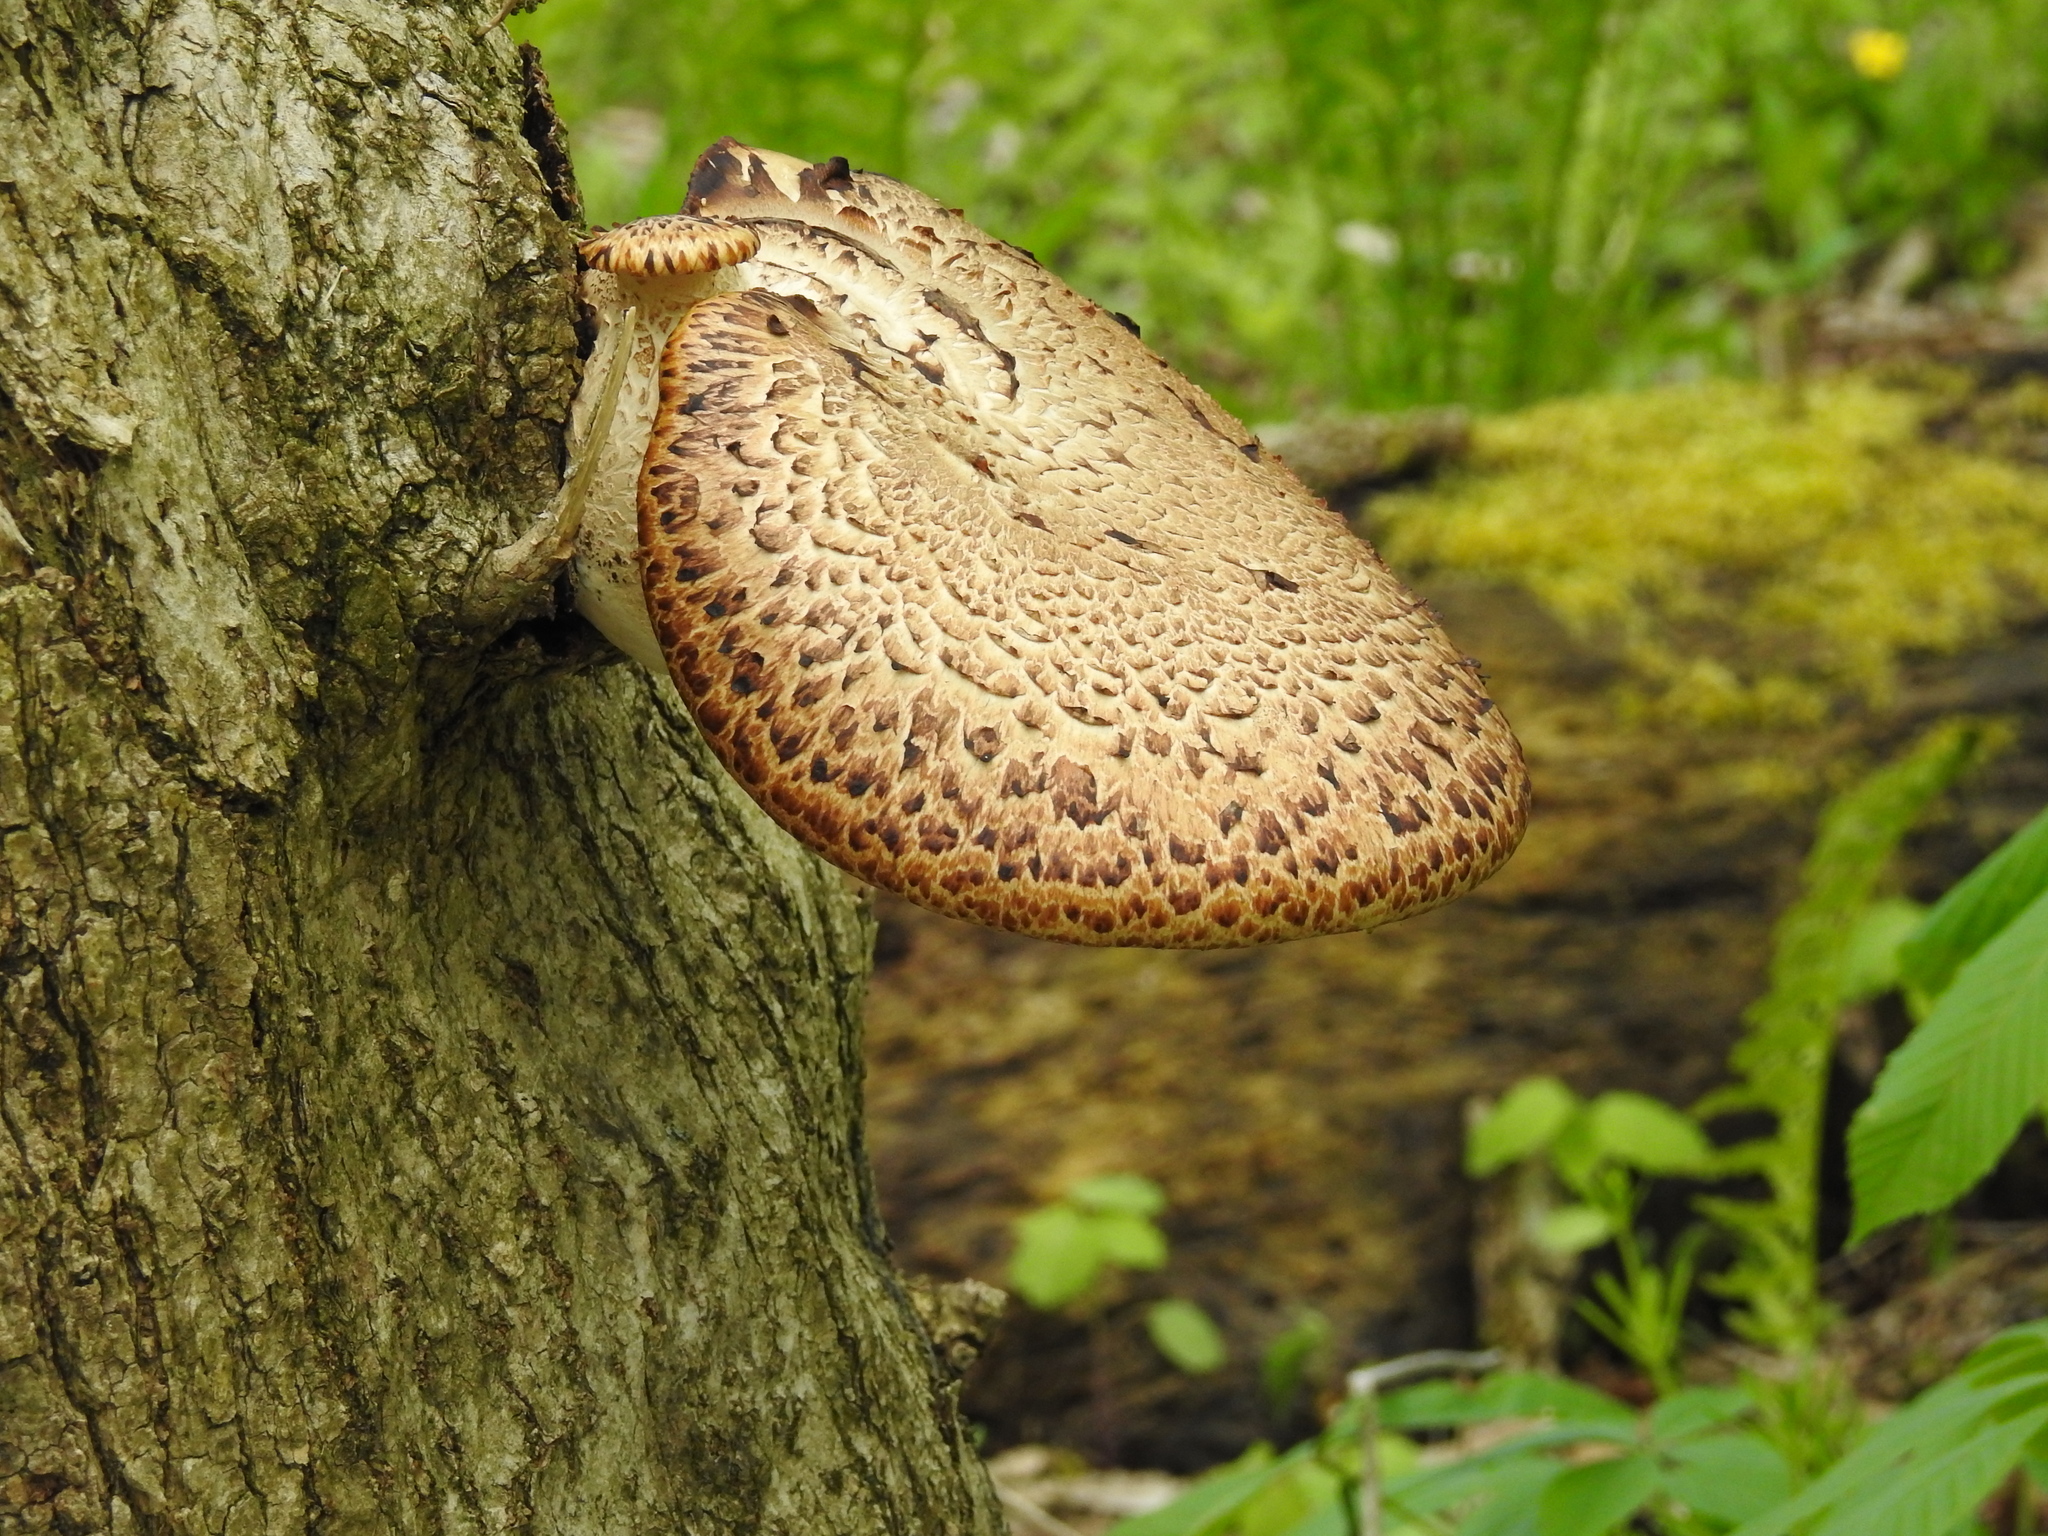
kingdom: Fungi
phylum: Basidiomycota
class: Agaricomycetes
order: Polyporales
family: Polyporaceae
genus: Cerioporus
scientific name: Cerioporus squamosus
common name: Dryad's saddle
